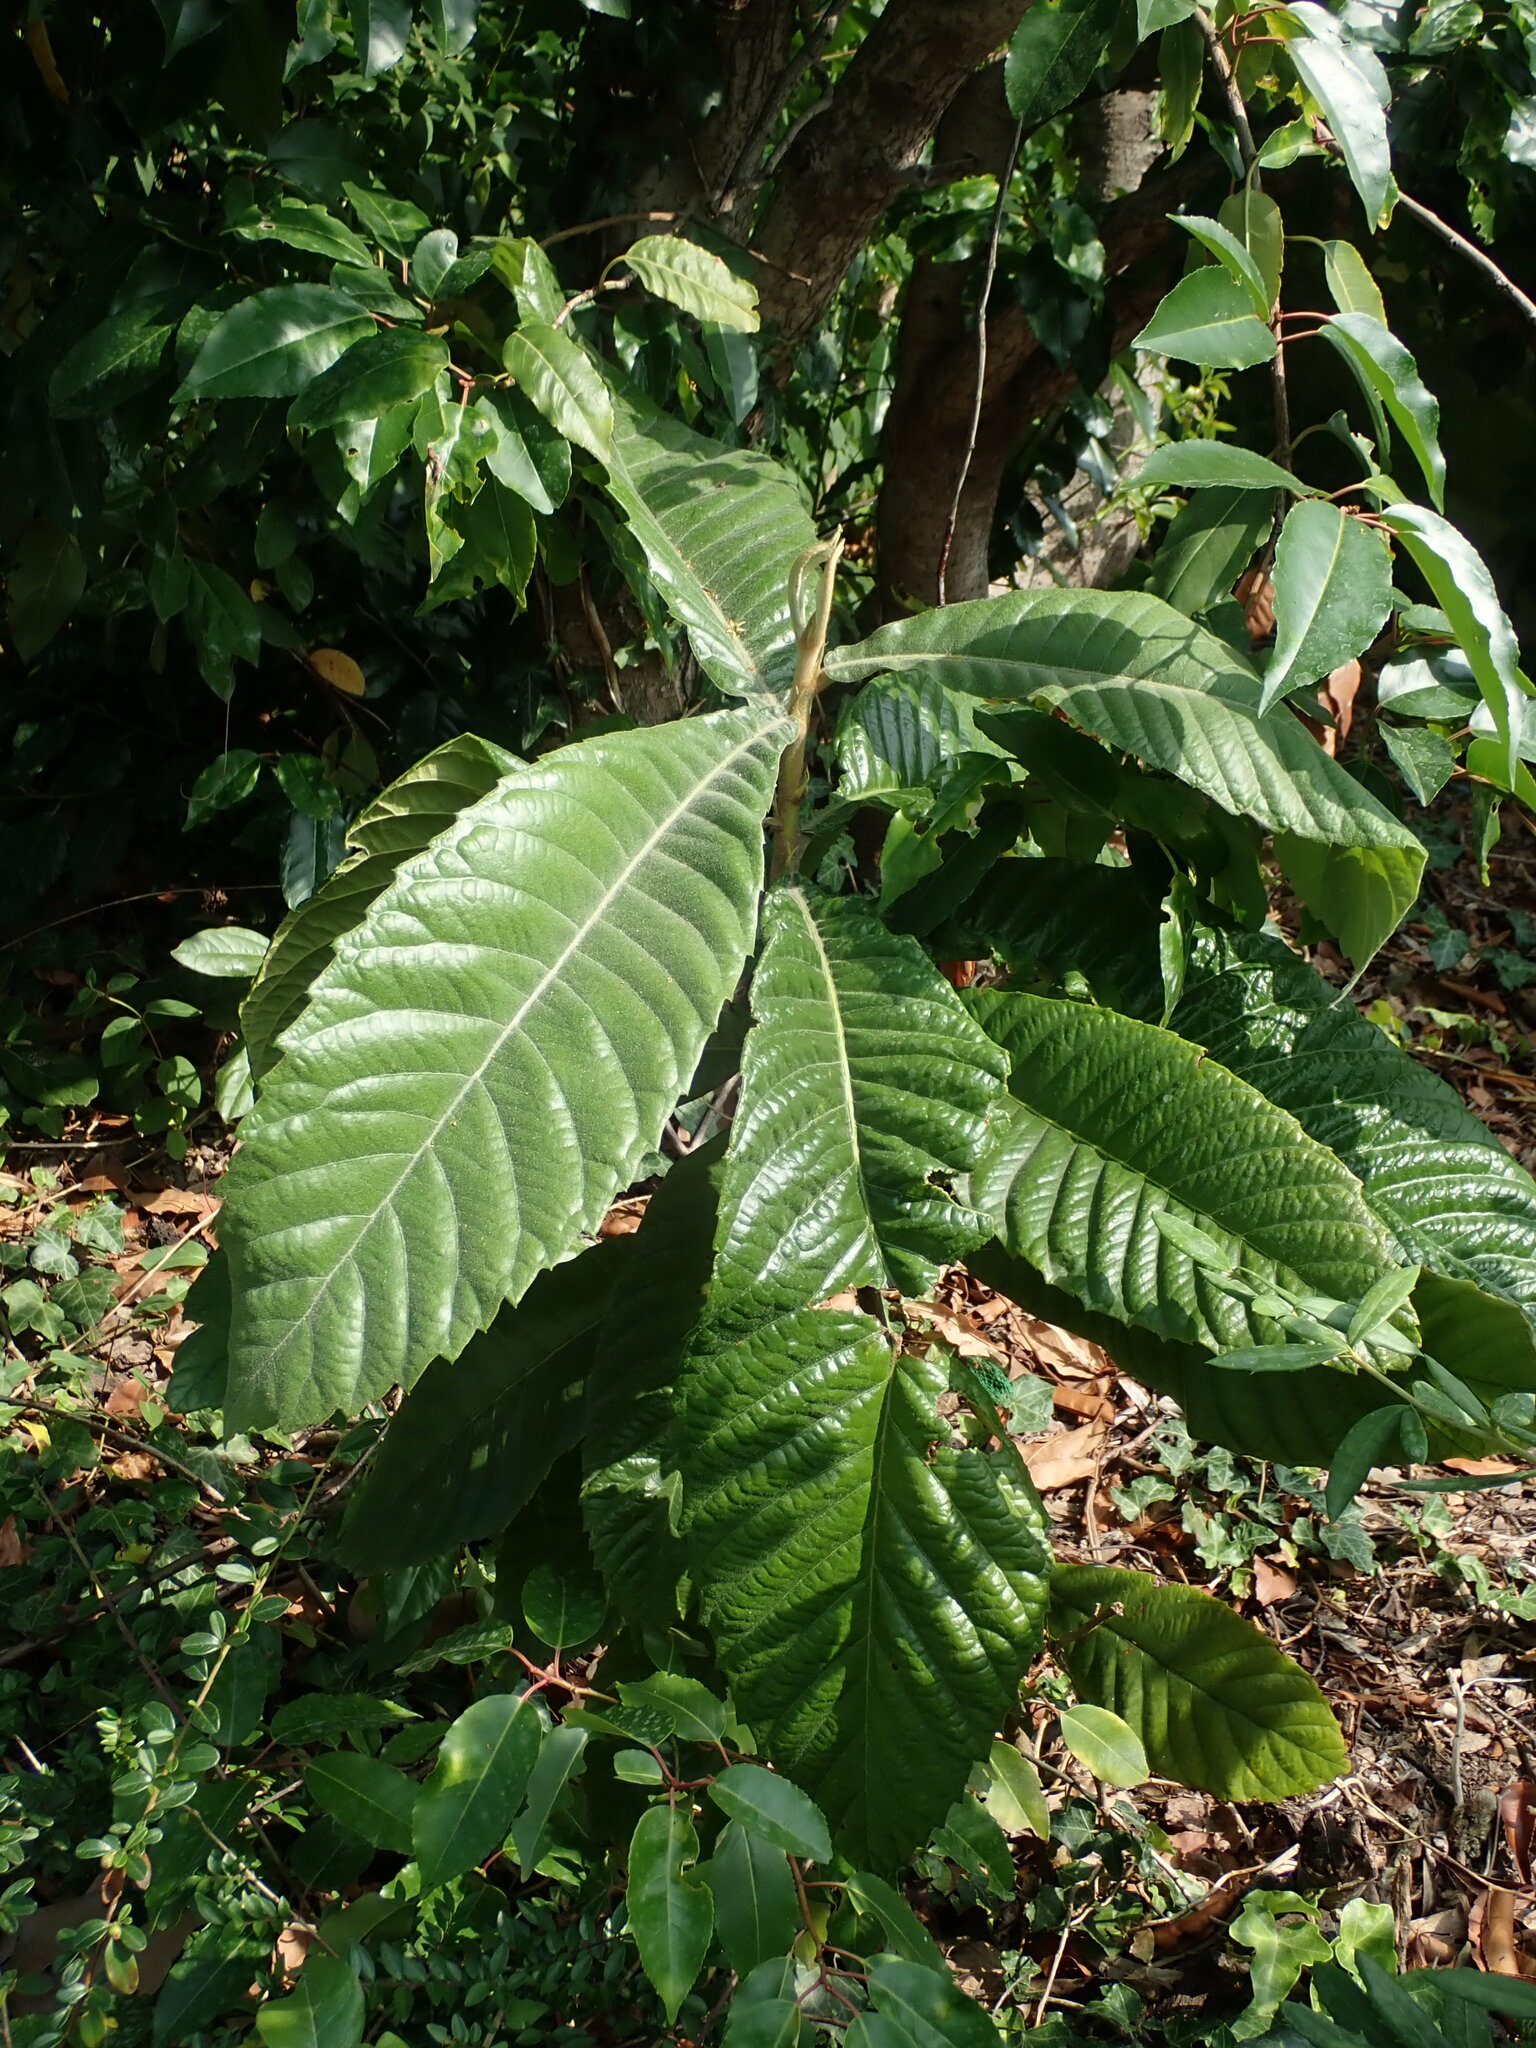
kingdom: Plantae
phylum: Tracheophyta
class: Magnoliopsida
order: Rosales
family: Rosaceae
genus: Rhaphiolepis
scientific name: Rhaphiolepis bibas
